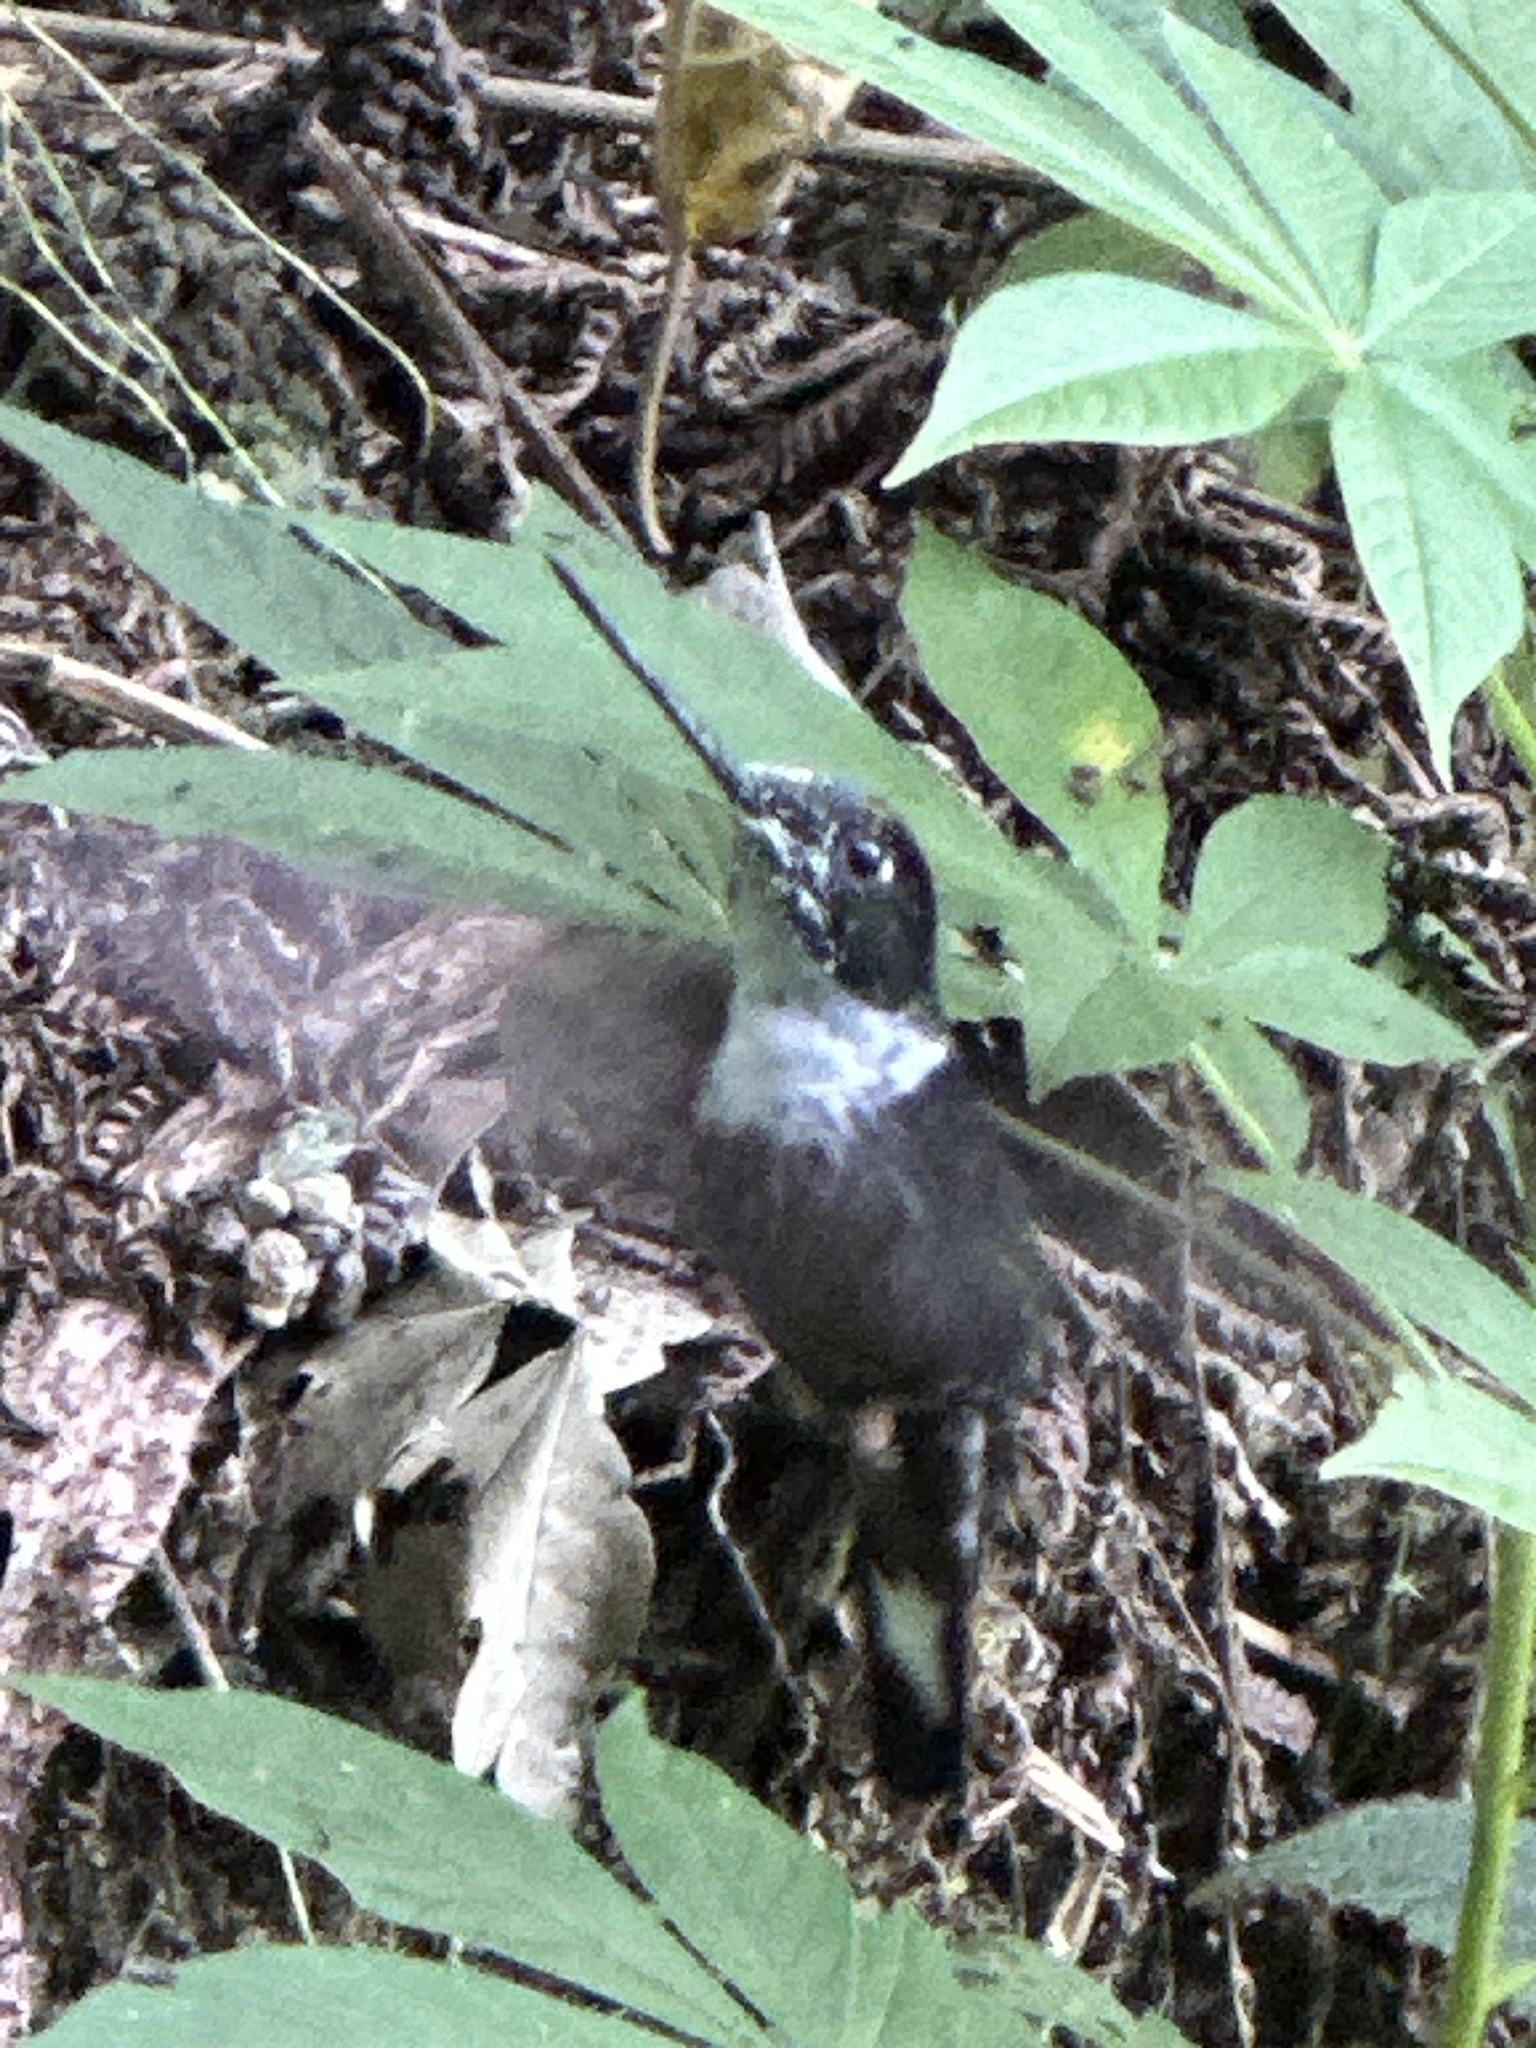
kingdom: Animalia
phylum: Chordata
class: Aves
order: Apodiformes
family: Trochilidae
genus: Coeligena
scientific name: Coeligena torquata
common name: Collared inca
